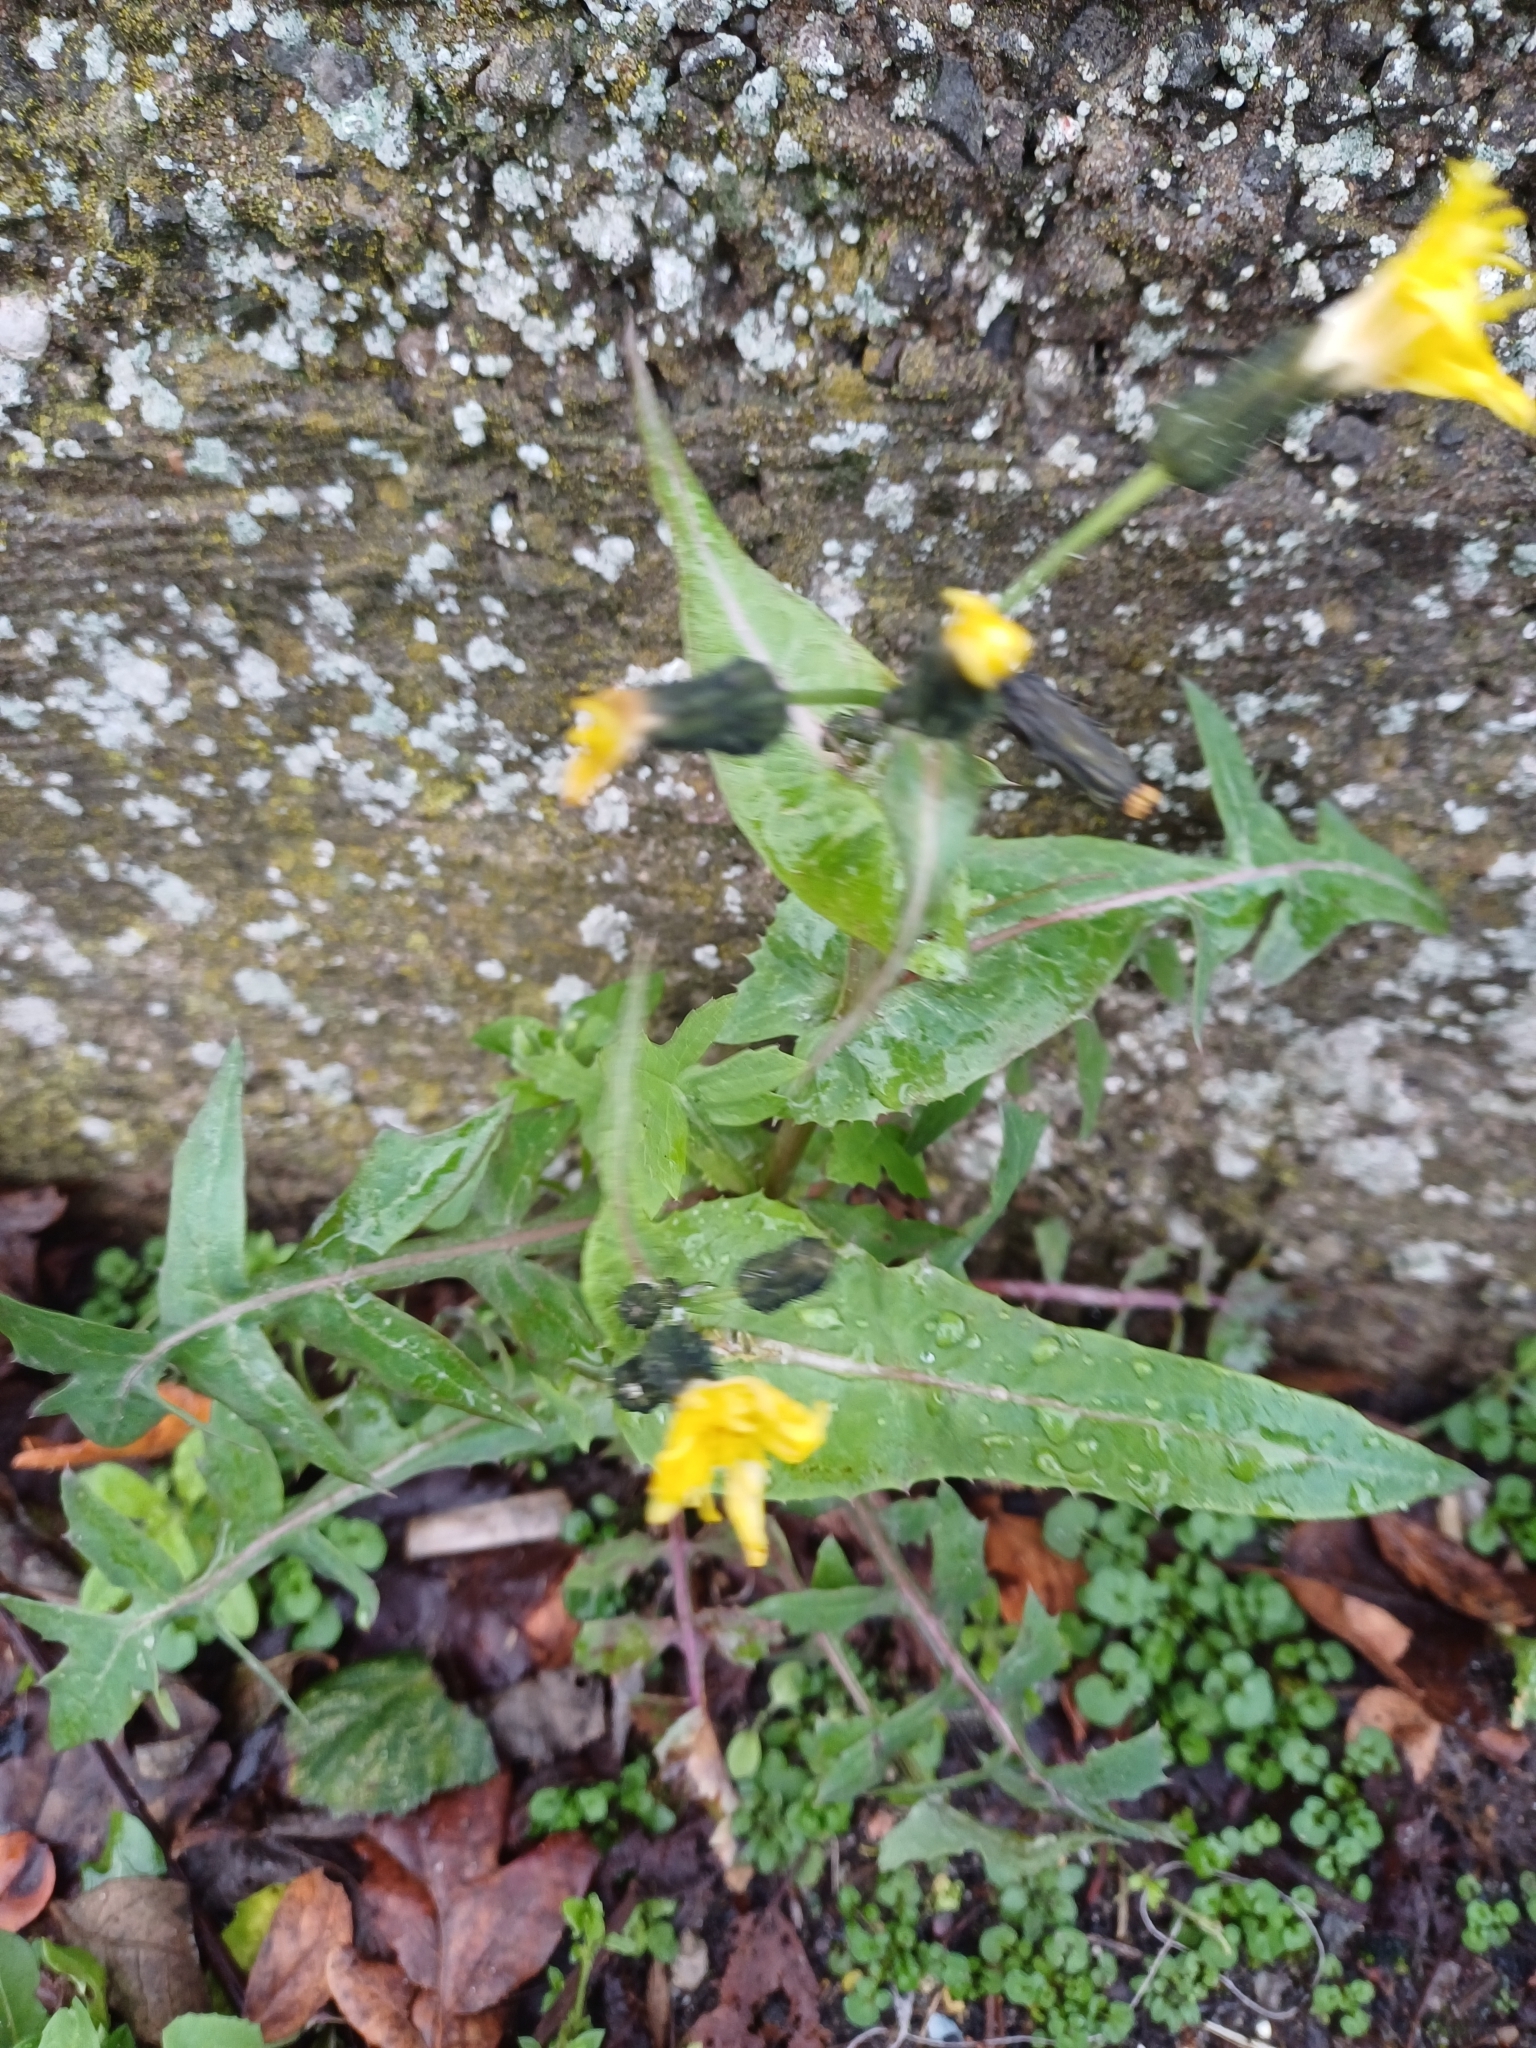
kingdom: Plantae
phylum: Tracheophyta
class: Magnoliopsida
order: Asterales
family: Asteraceae
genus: Sonchus
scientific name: Sonchus oleraceus
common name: Common sowthistle
